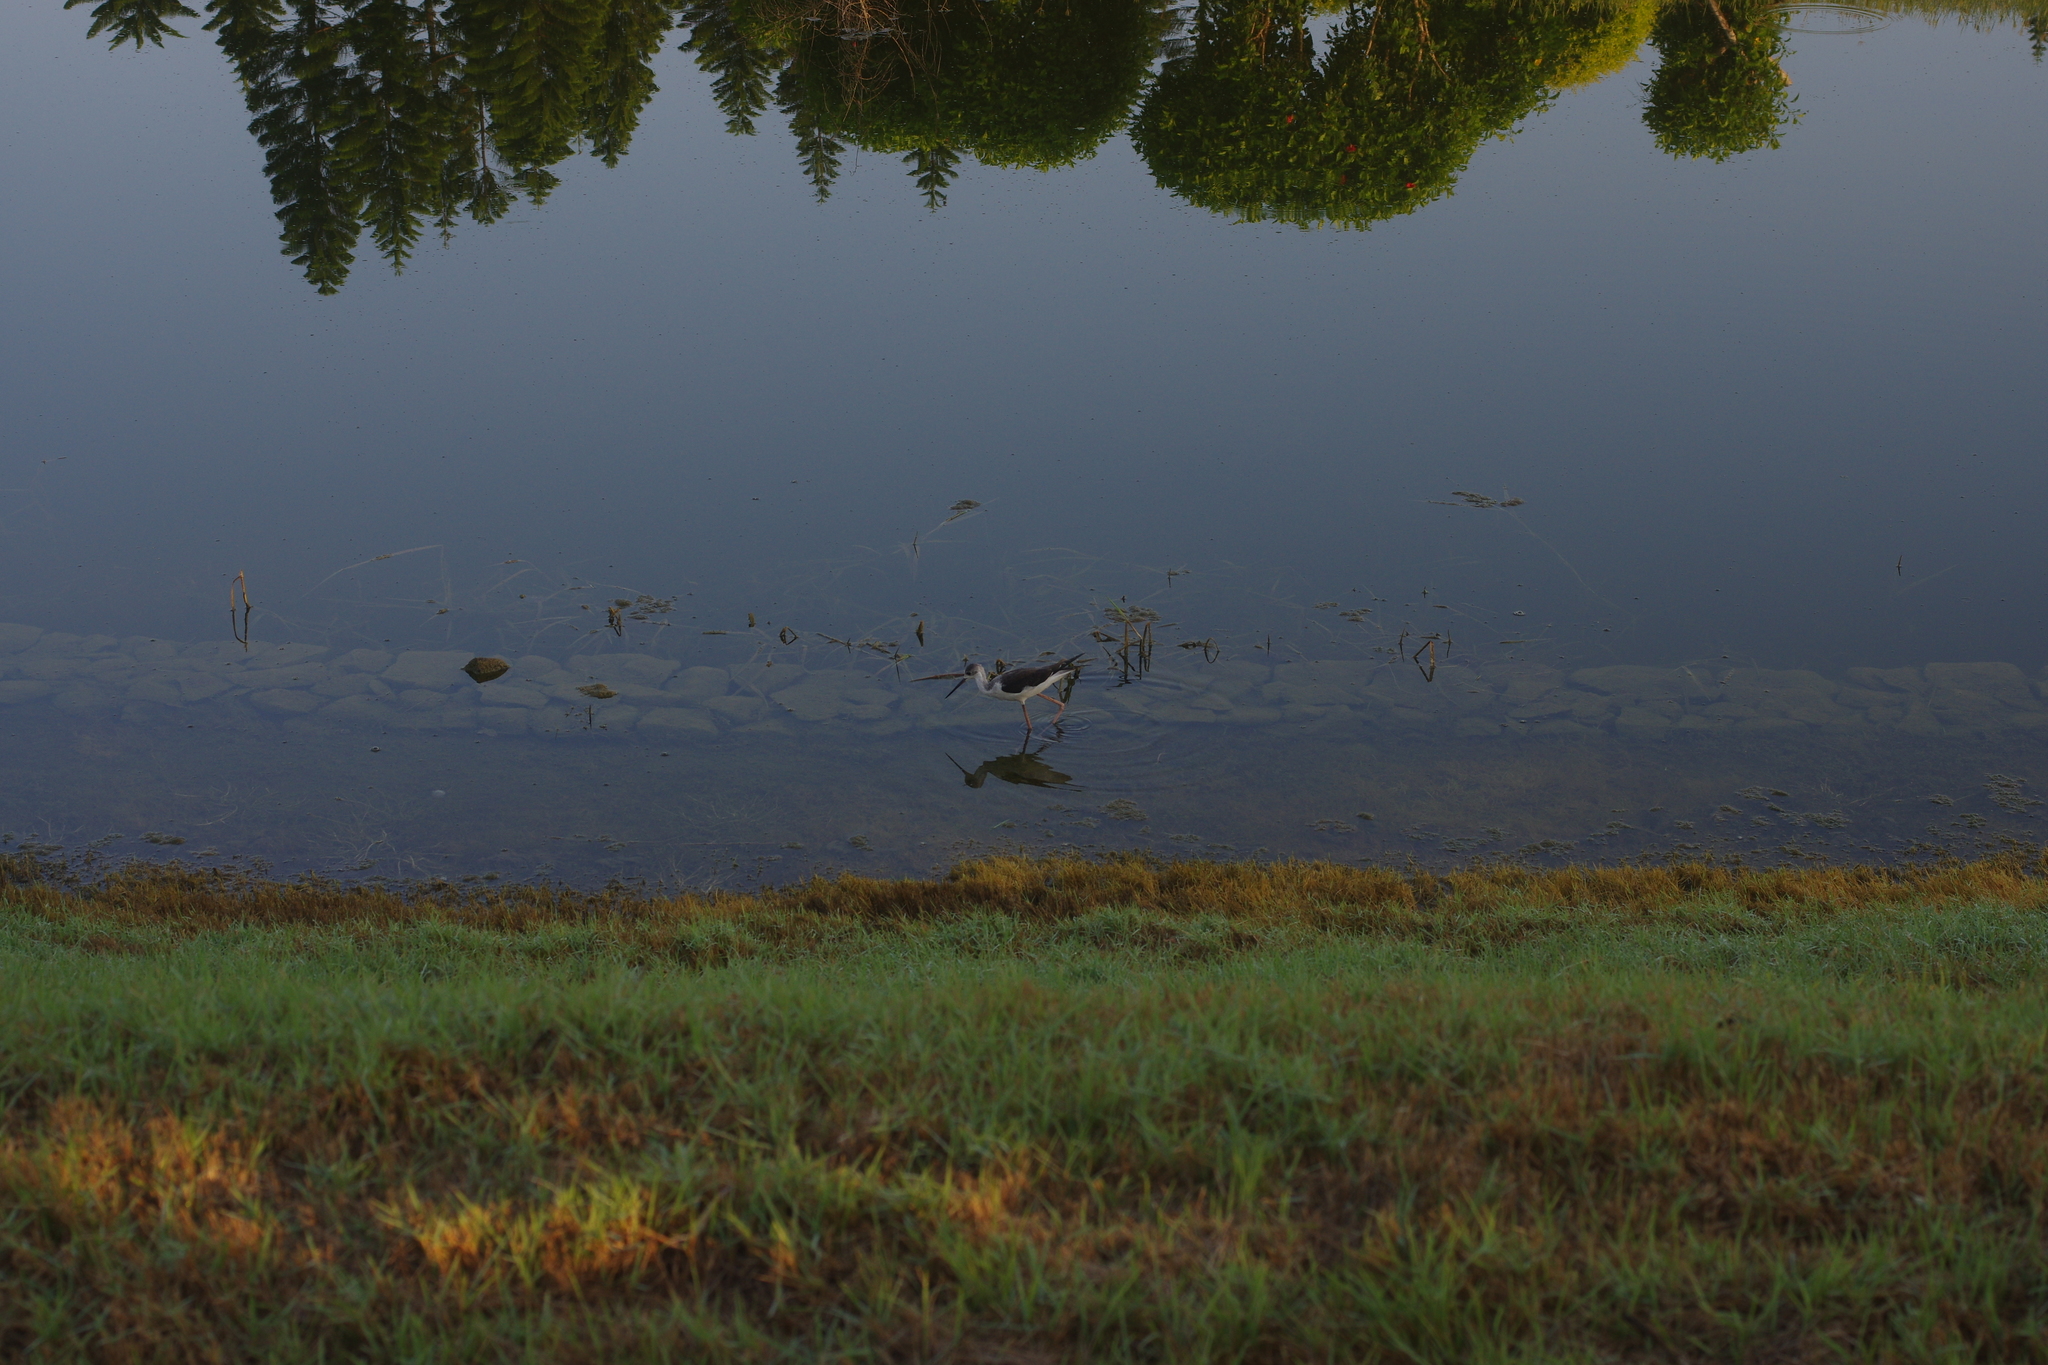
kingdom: Animalia
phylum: Chordata
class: Aves
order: Charadriiformes
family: Recurvirostridae
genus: Himantopus
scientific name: Himantopus himantopus
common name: Black-winged stilt
